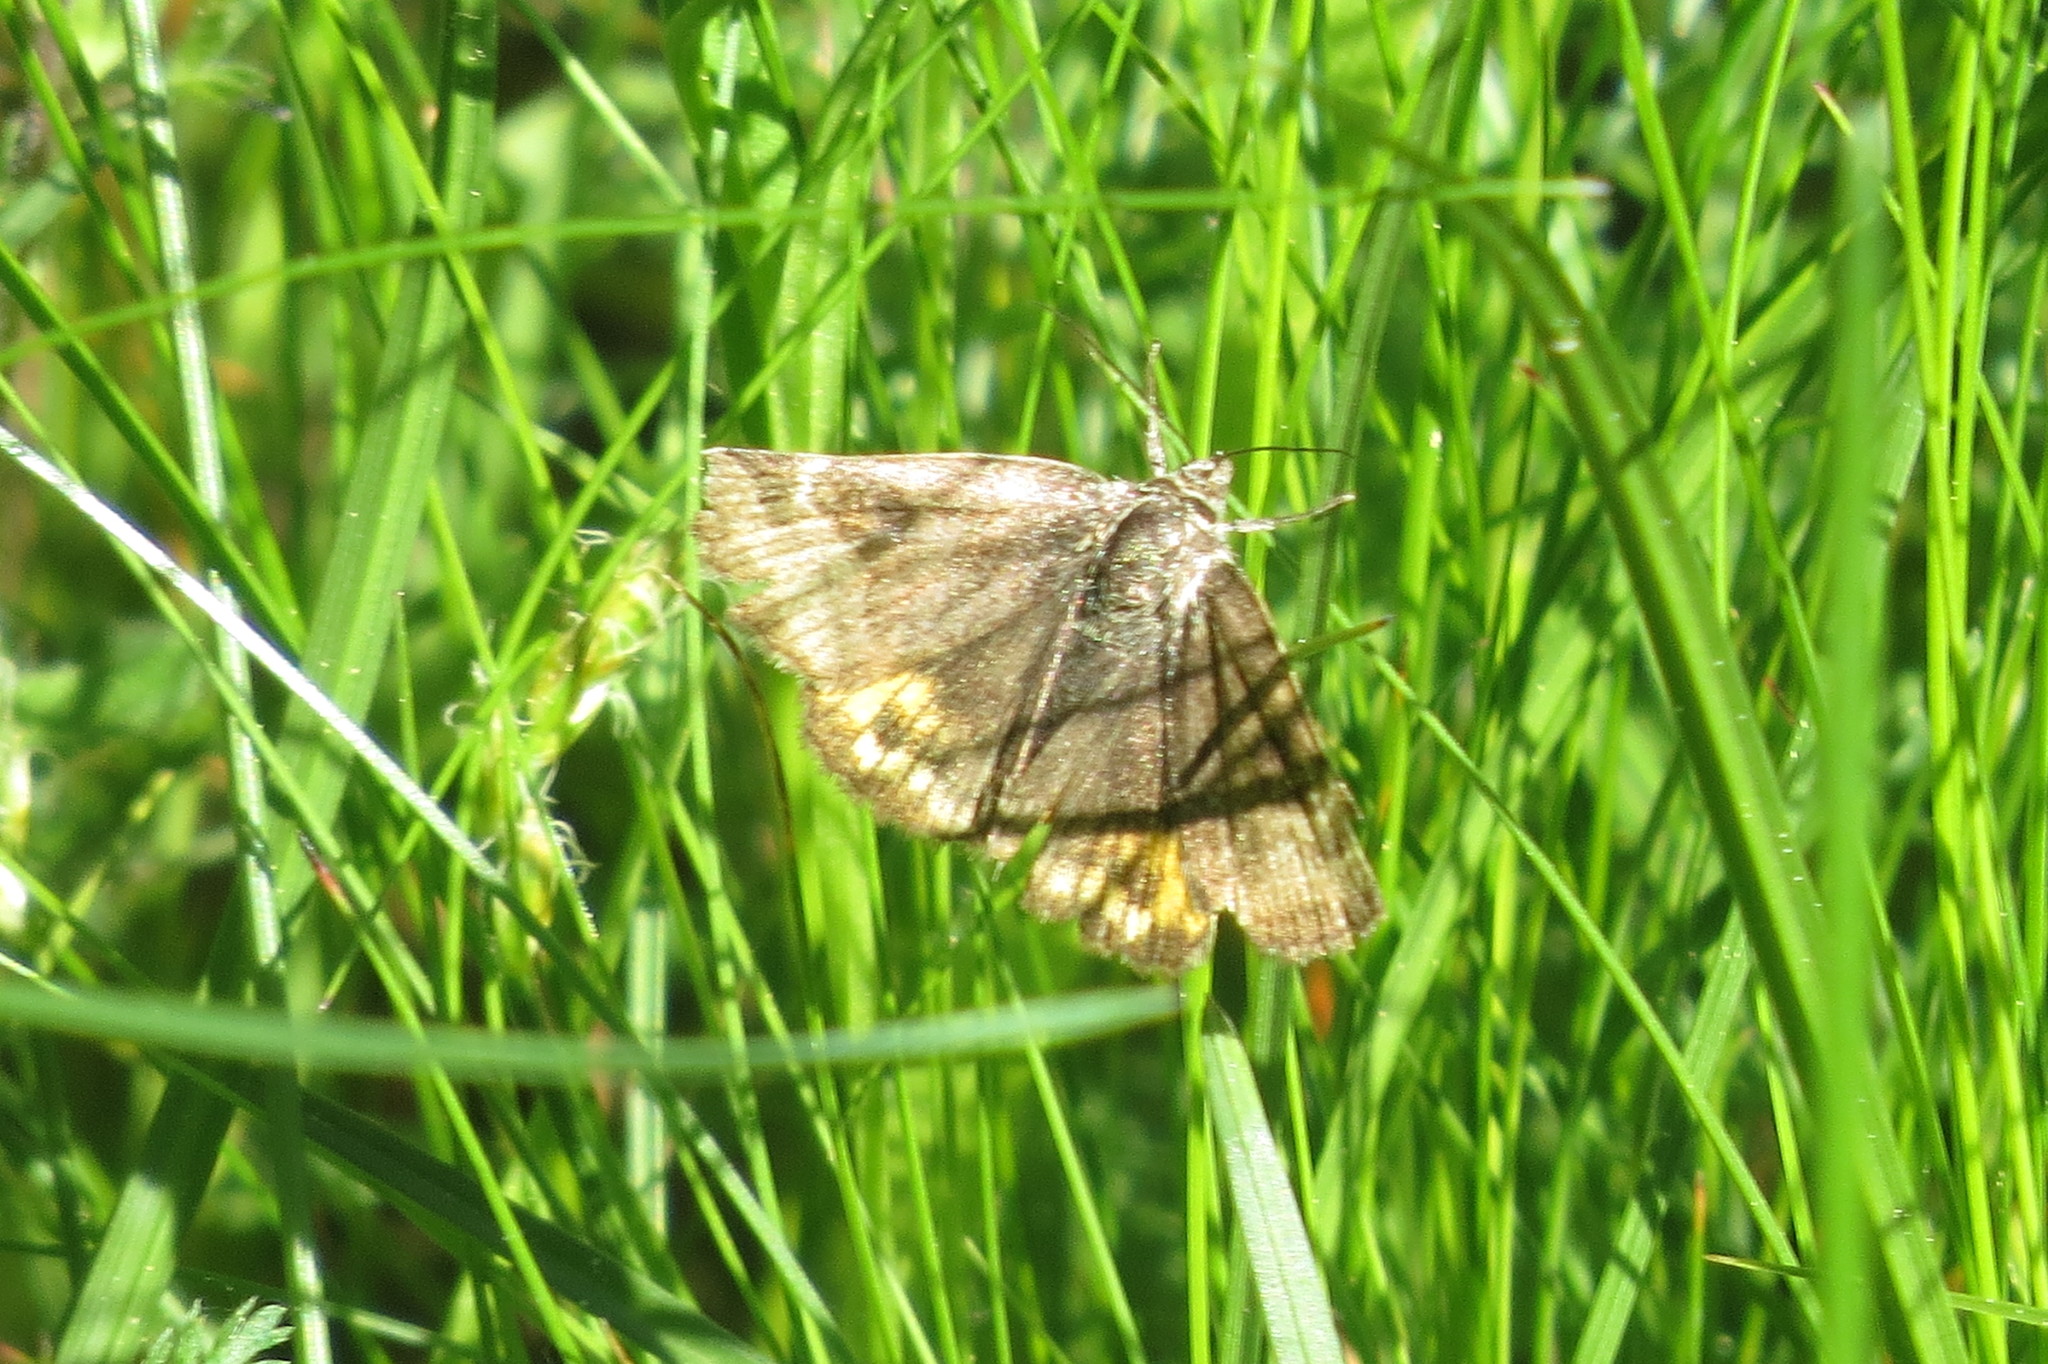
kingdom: Animalia
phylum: Arthropoda
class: Insecta
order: Lepidoptera
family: Erebidae
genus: Euclidia
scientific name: Euclidia glyphica
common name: Burnet companion
